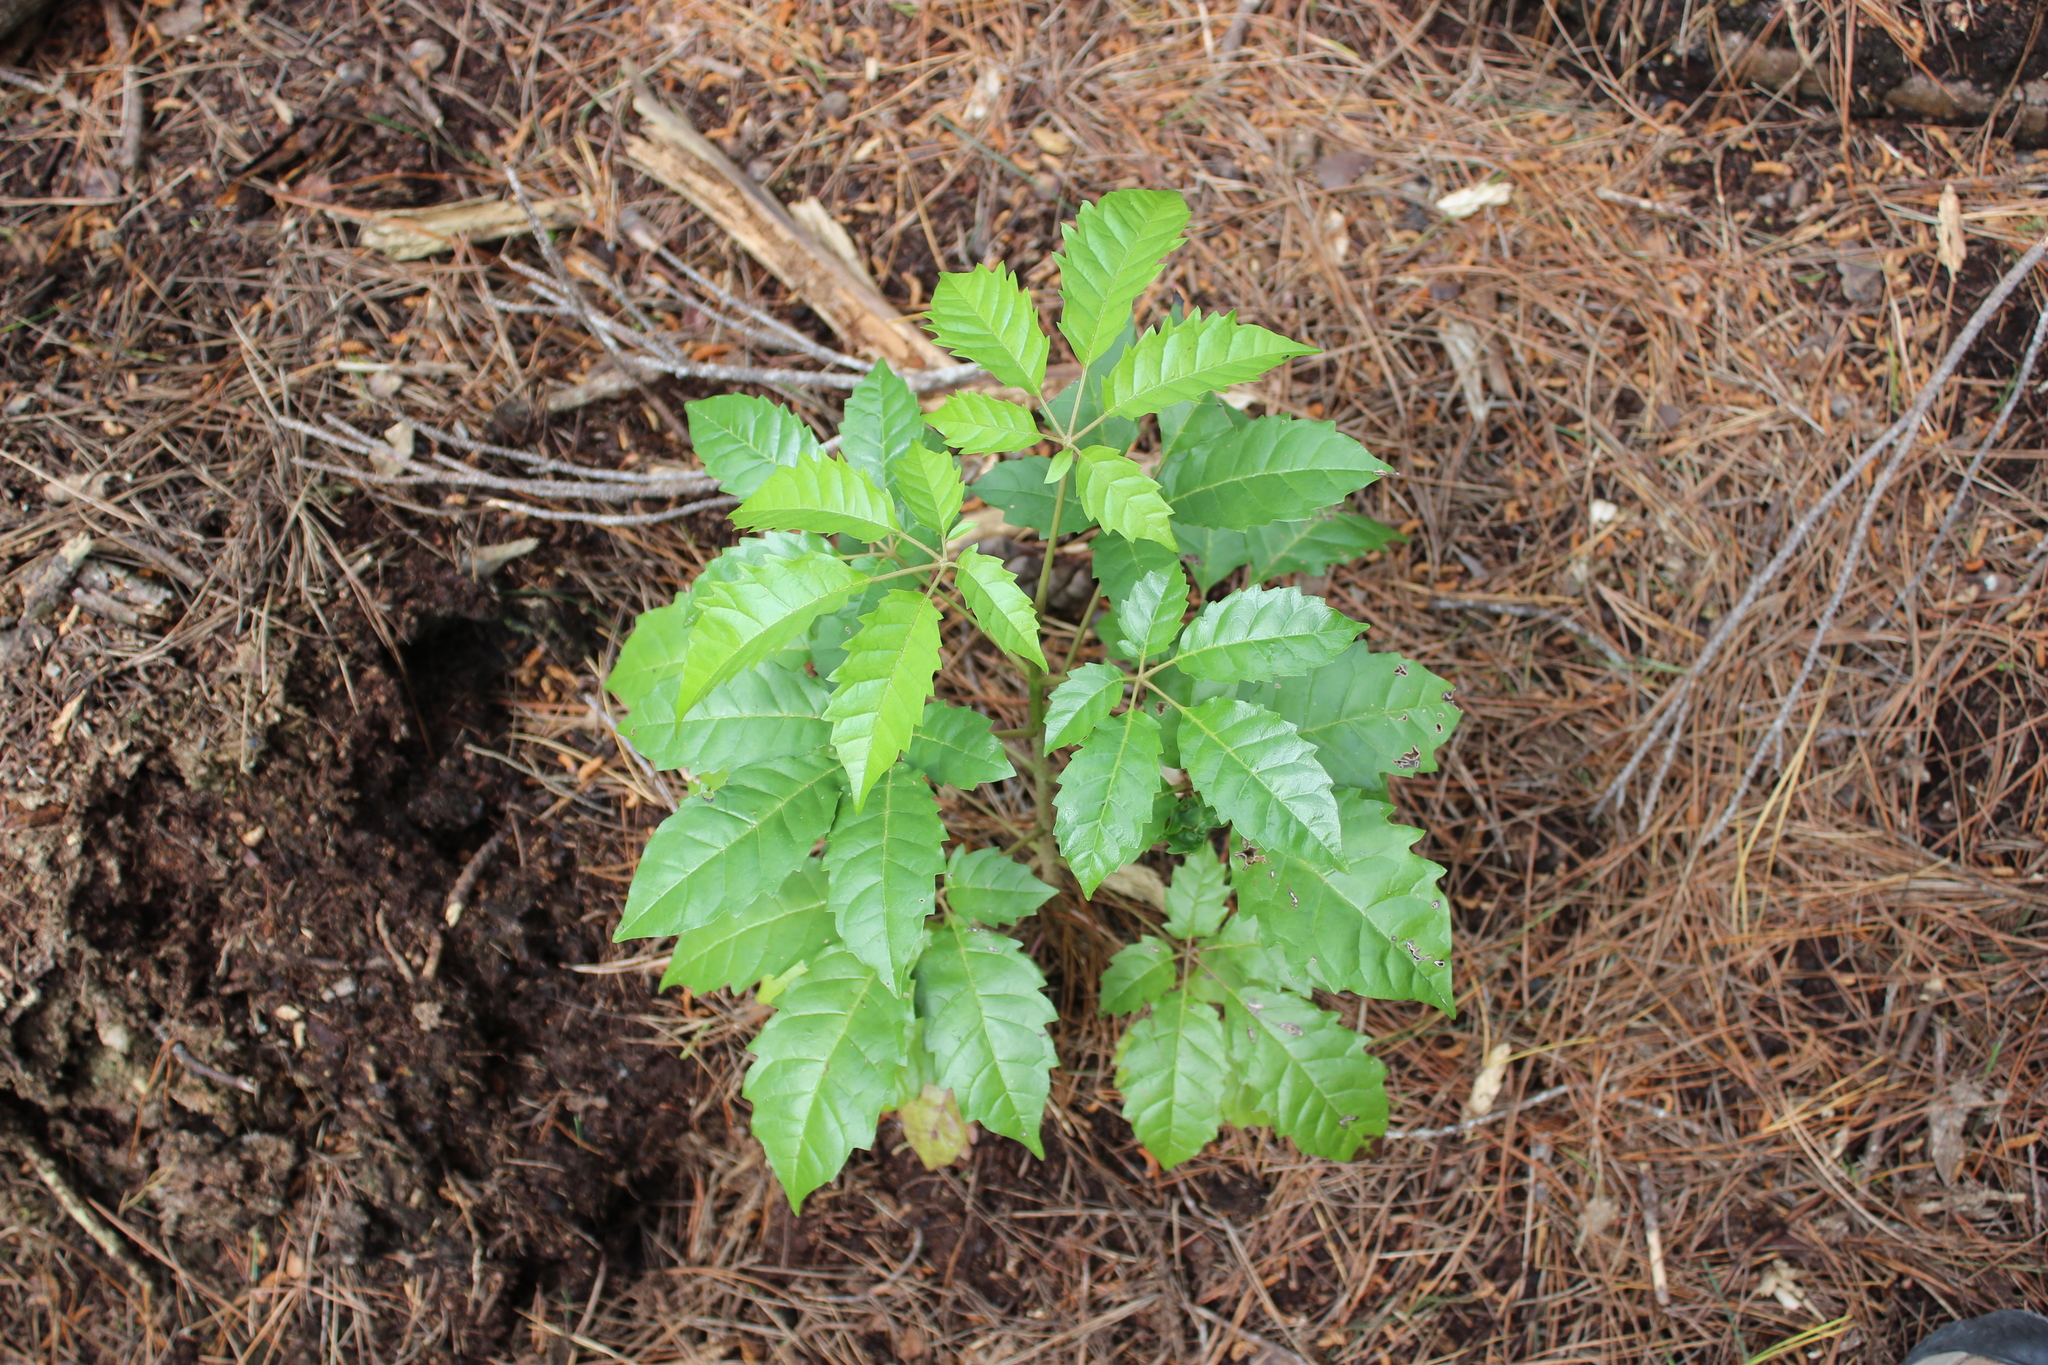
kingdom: Plantae
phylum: Tracheophyta
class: Magnoliopsida
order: Lamiales
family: Lamiaceae
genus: Vitex
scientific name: Vitex lucens
